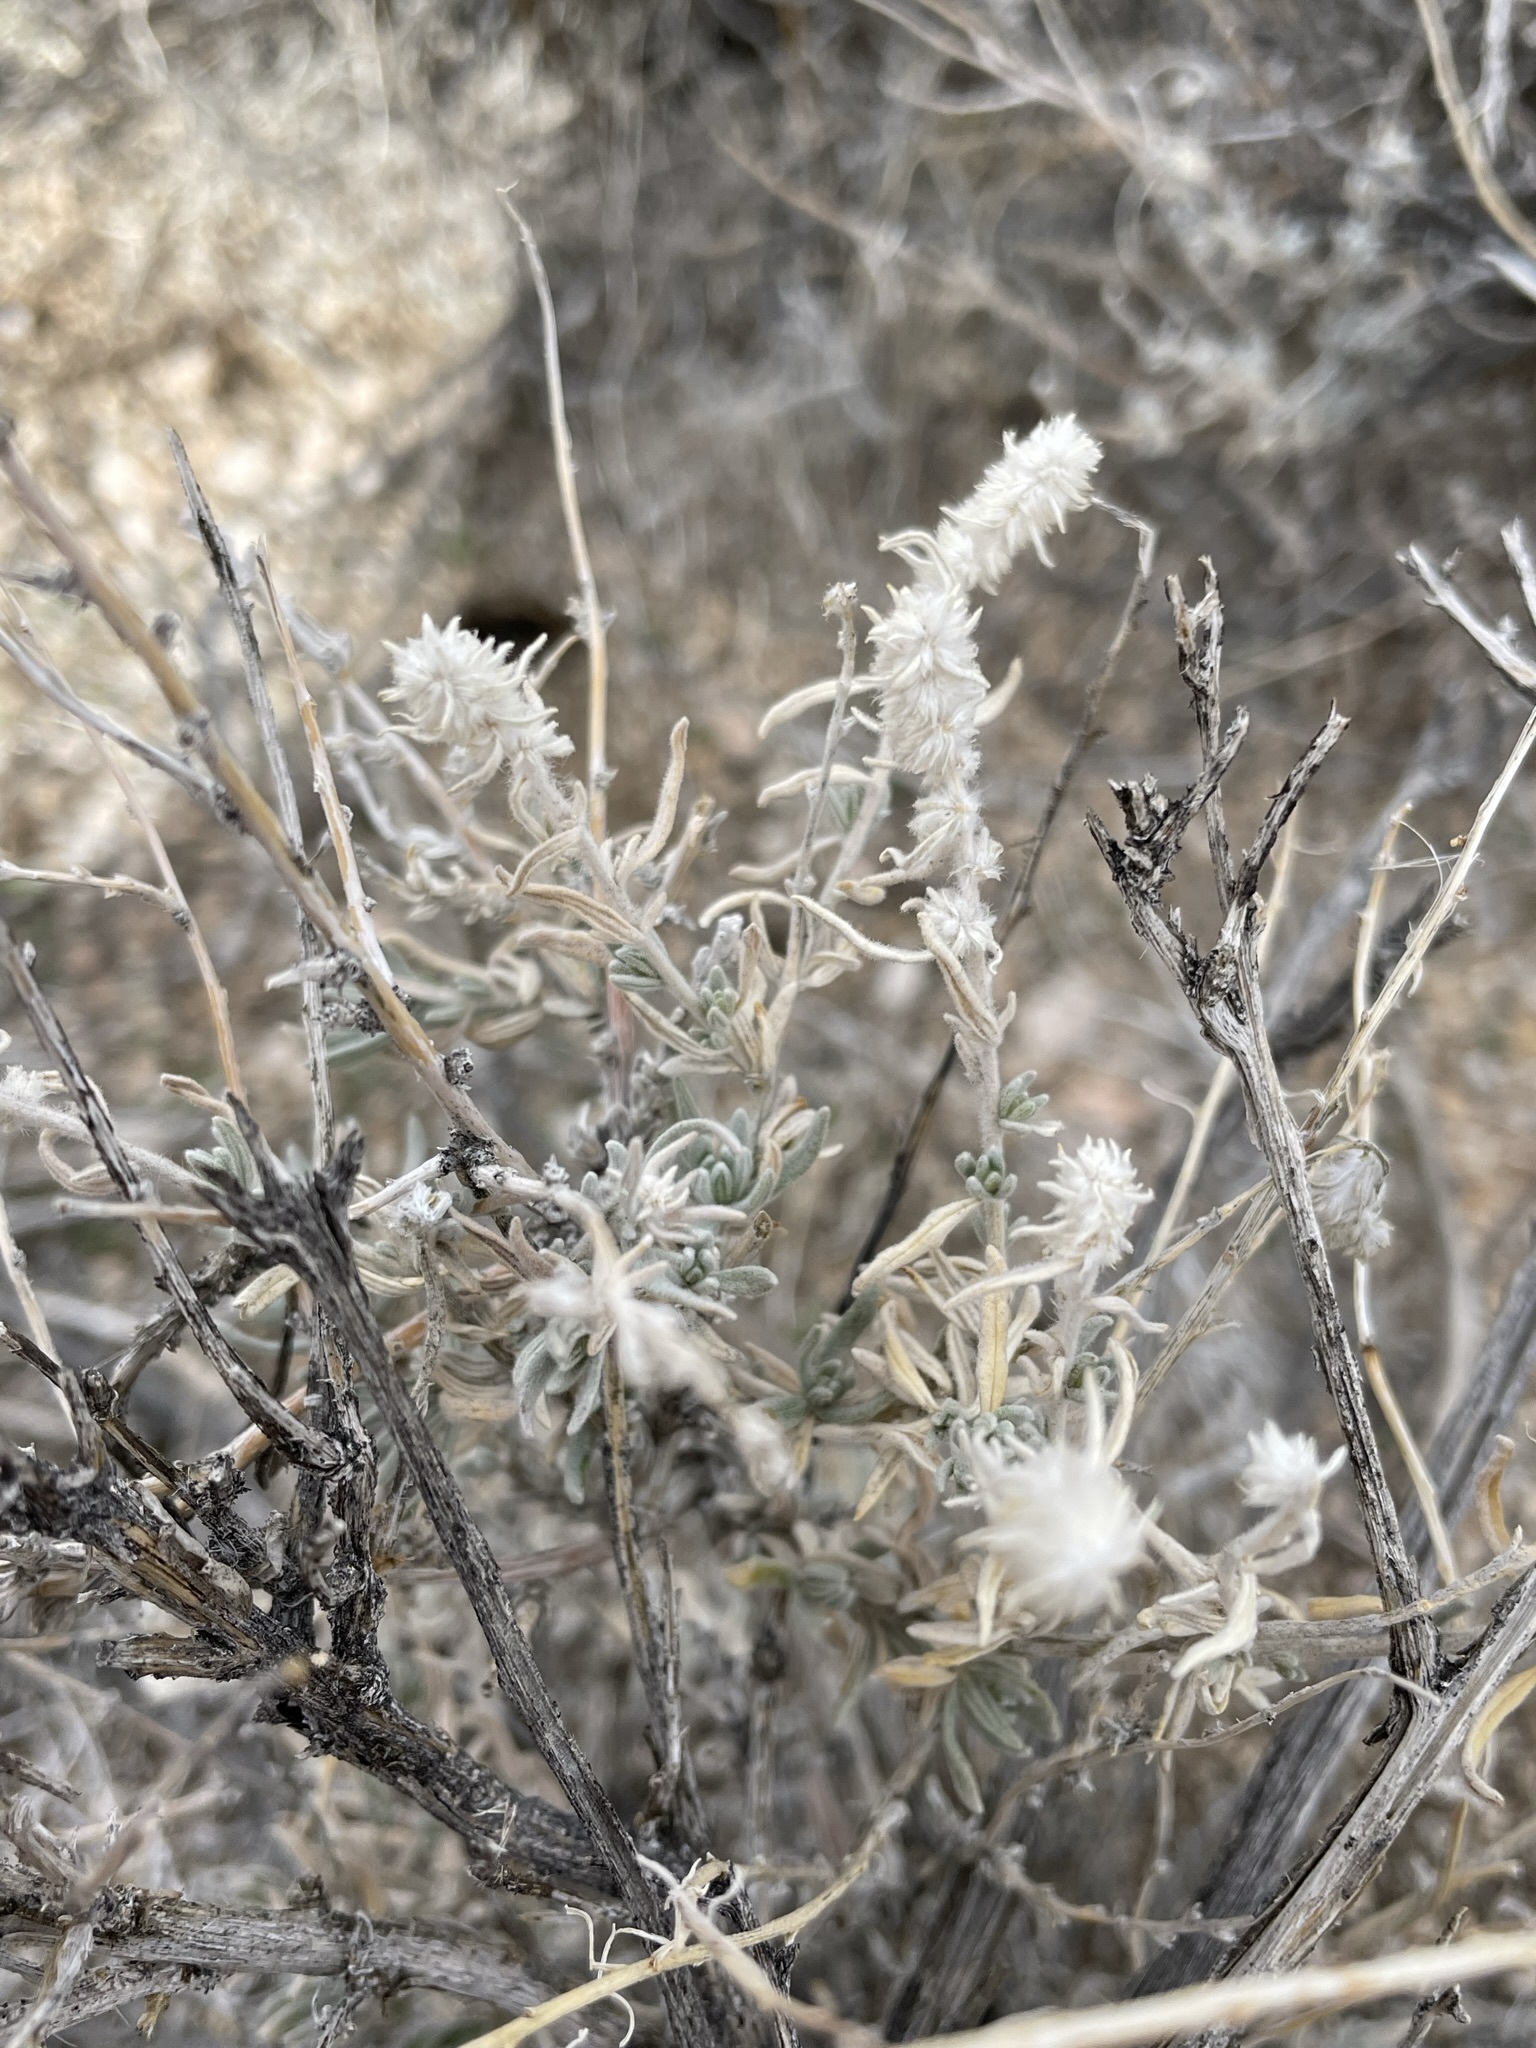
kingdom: Plantae
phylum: Tracheophyta
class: Magnoliopsida
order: Caryophyllales
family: Amaranthaceae
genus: Krascheninnikovia
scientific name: Krascheninnikovia lanata
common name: Winterfat
